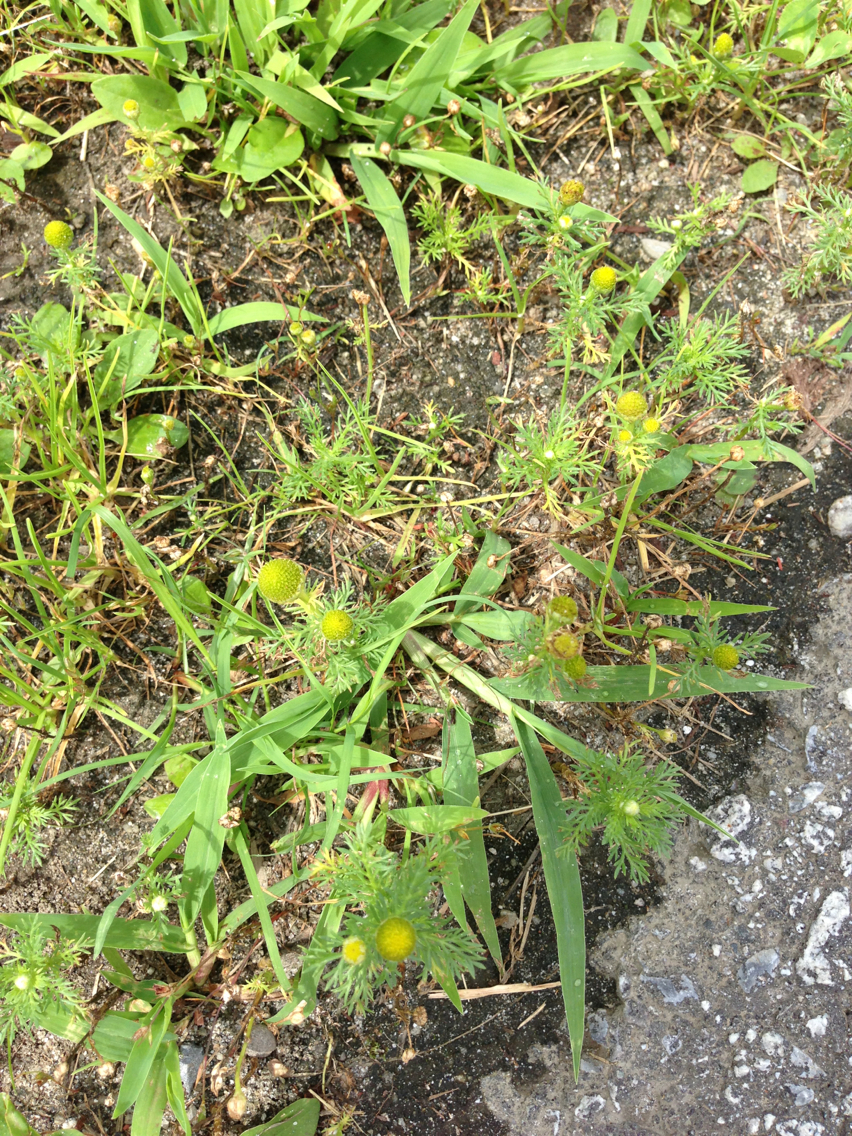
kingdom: Plantae
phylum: Tracheophyta
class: Magnoliopsida
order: Asterales
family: Asteraceae
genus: Matricaria
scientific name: Matricaria discoidea
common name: Disc mayweed
